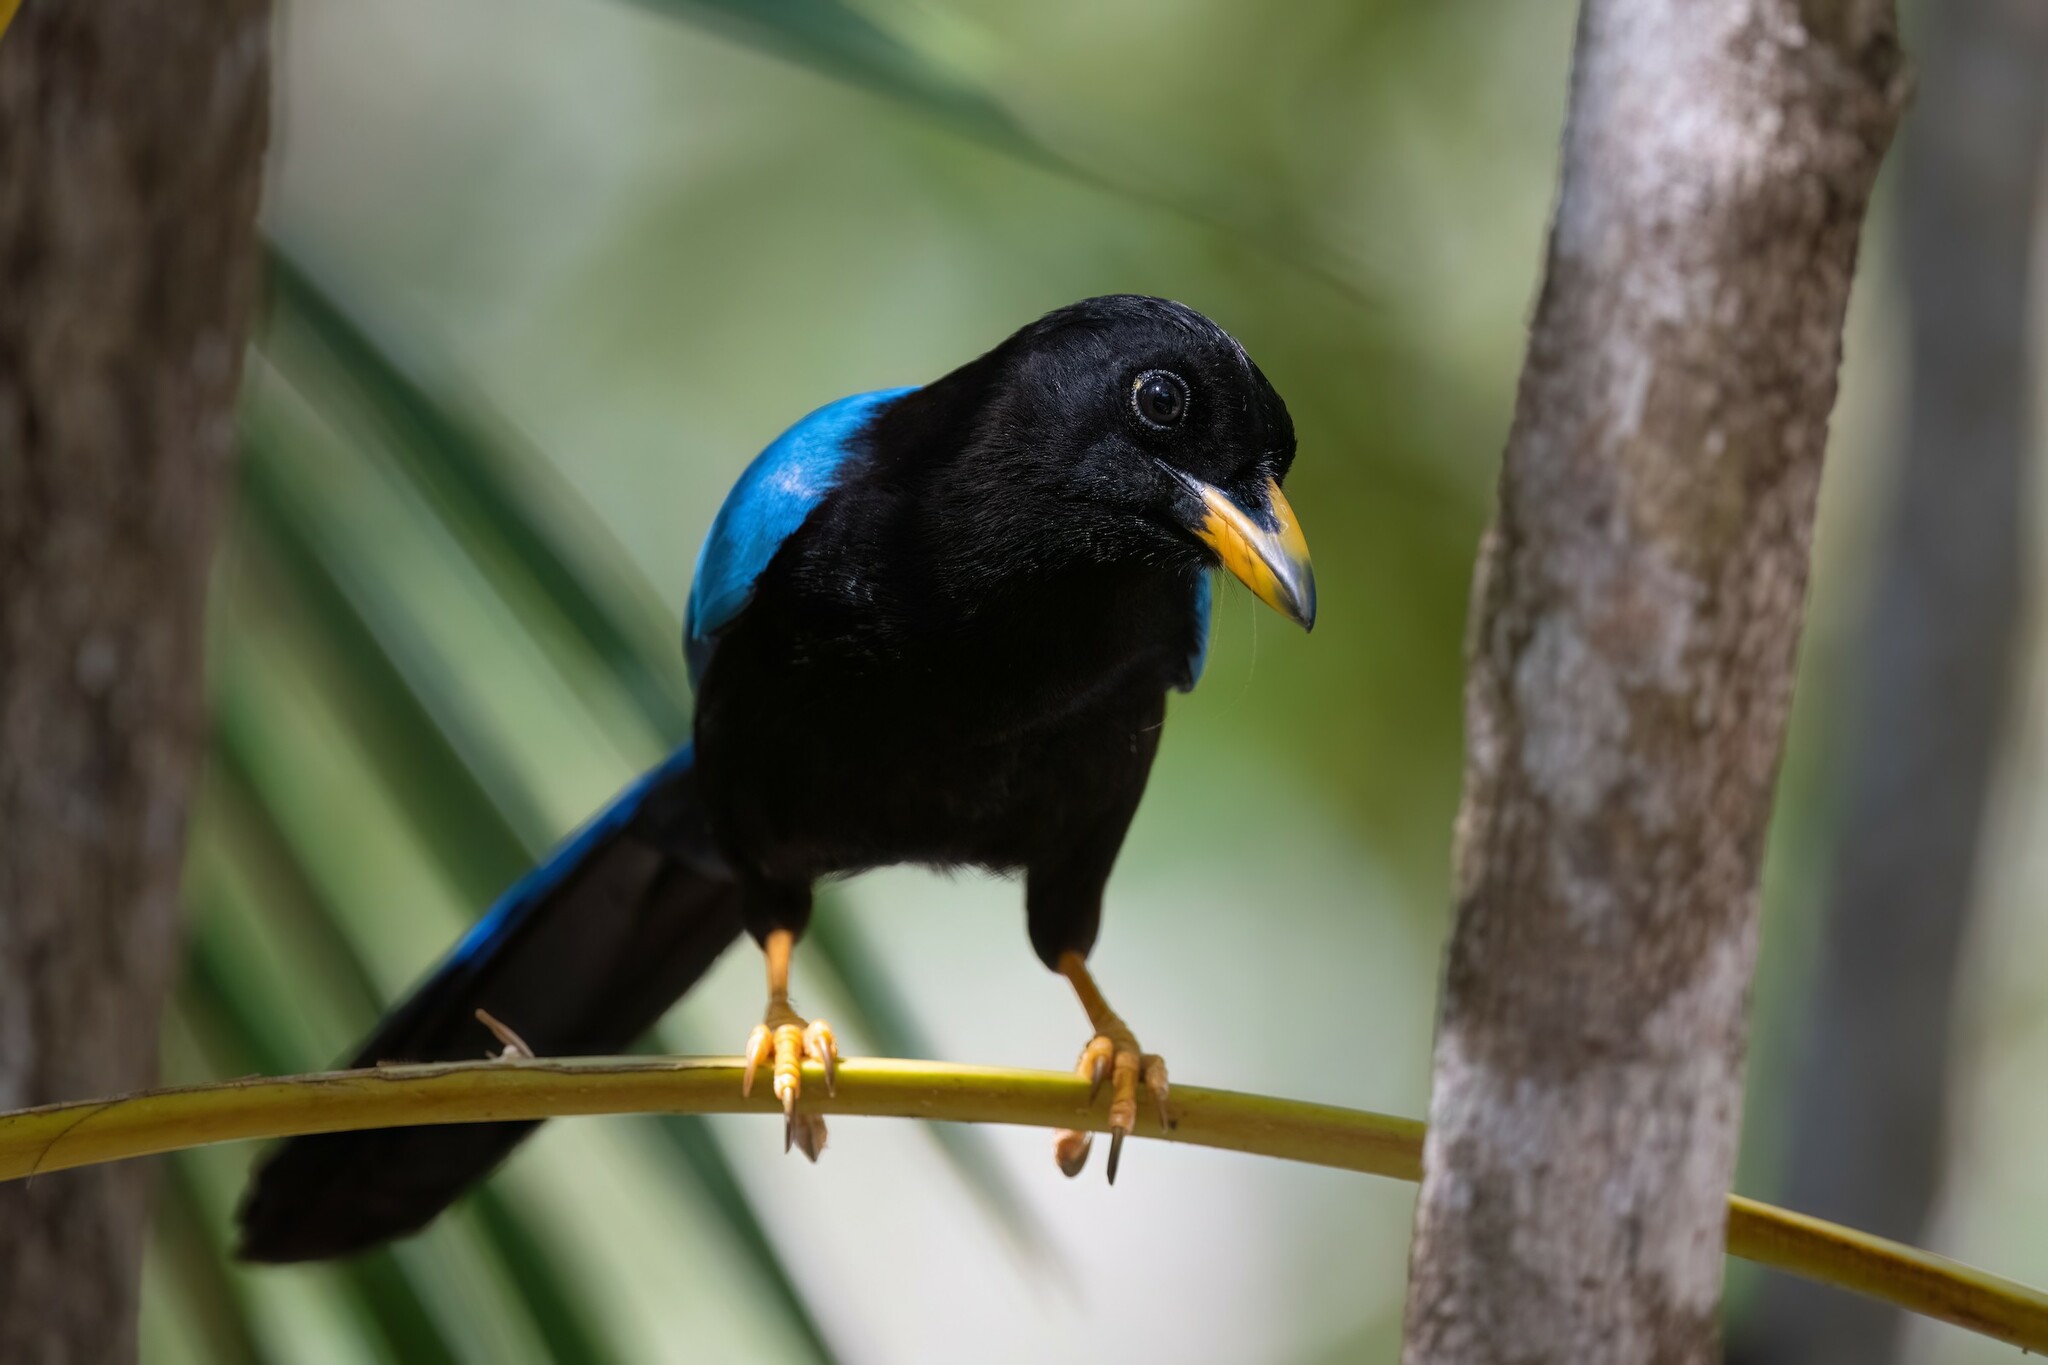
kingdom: Animalia
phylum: Chordata
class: Aves
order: Passeriformes
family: Corvidae
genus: Cyanocorax
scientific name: Cyanocorax yucatanicus
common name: Yucatan jay
